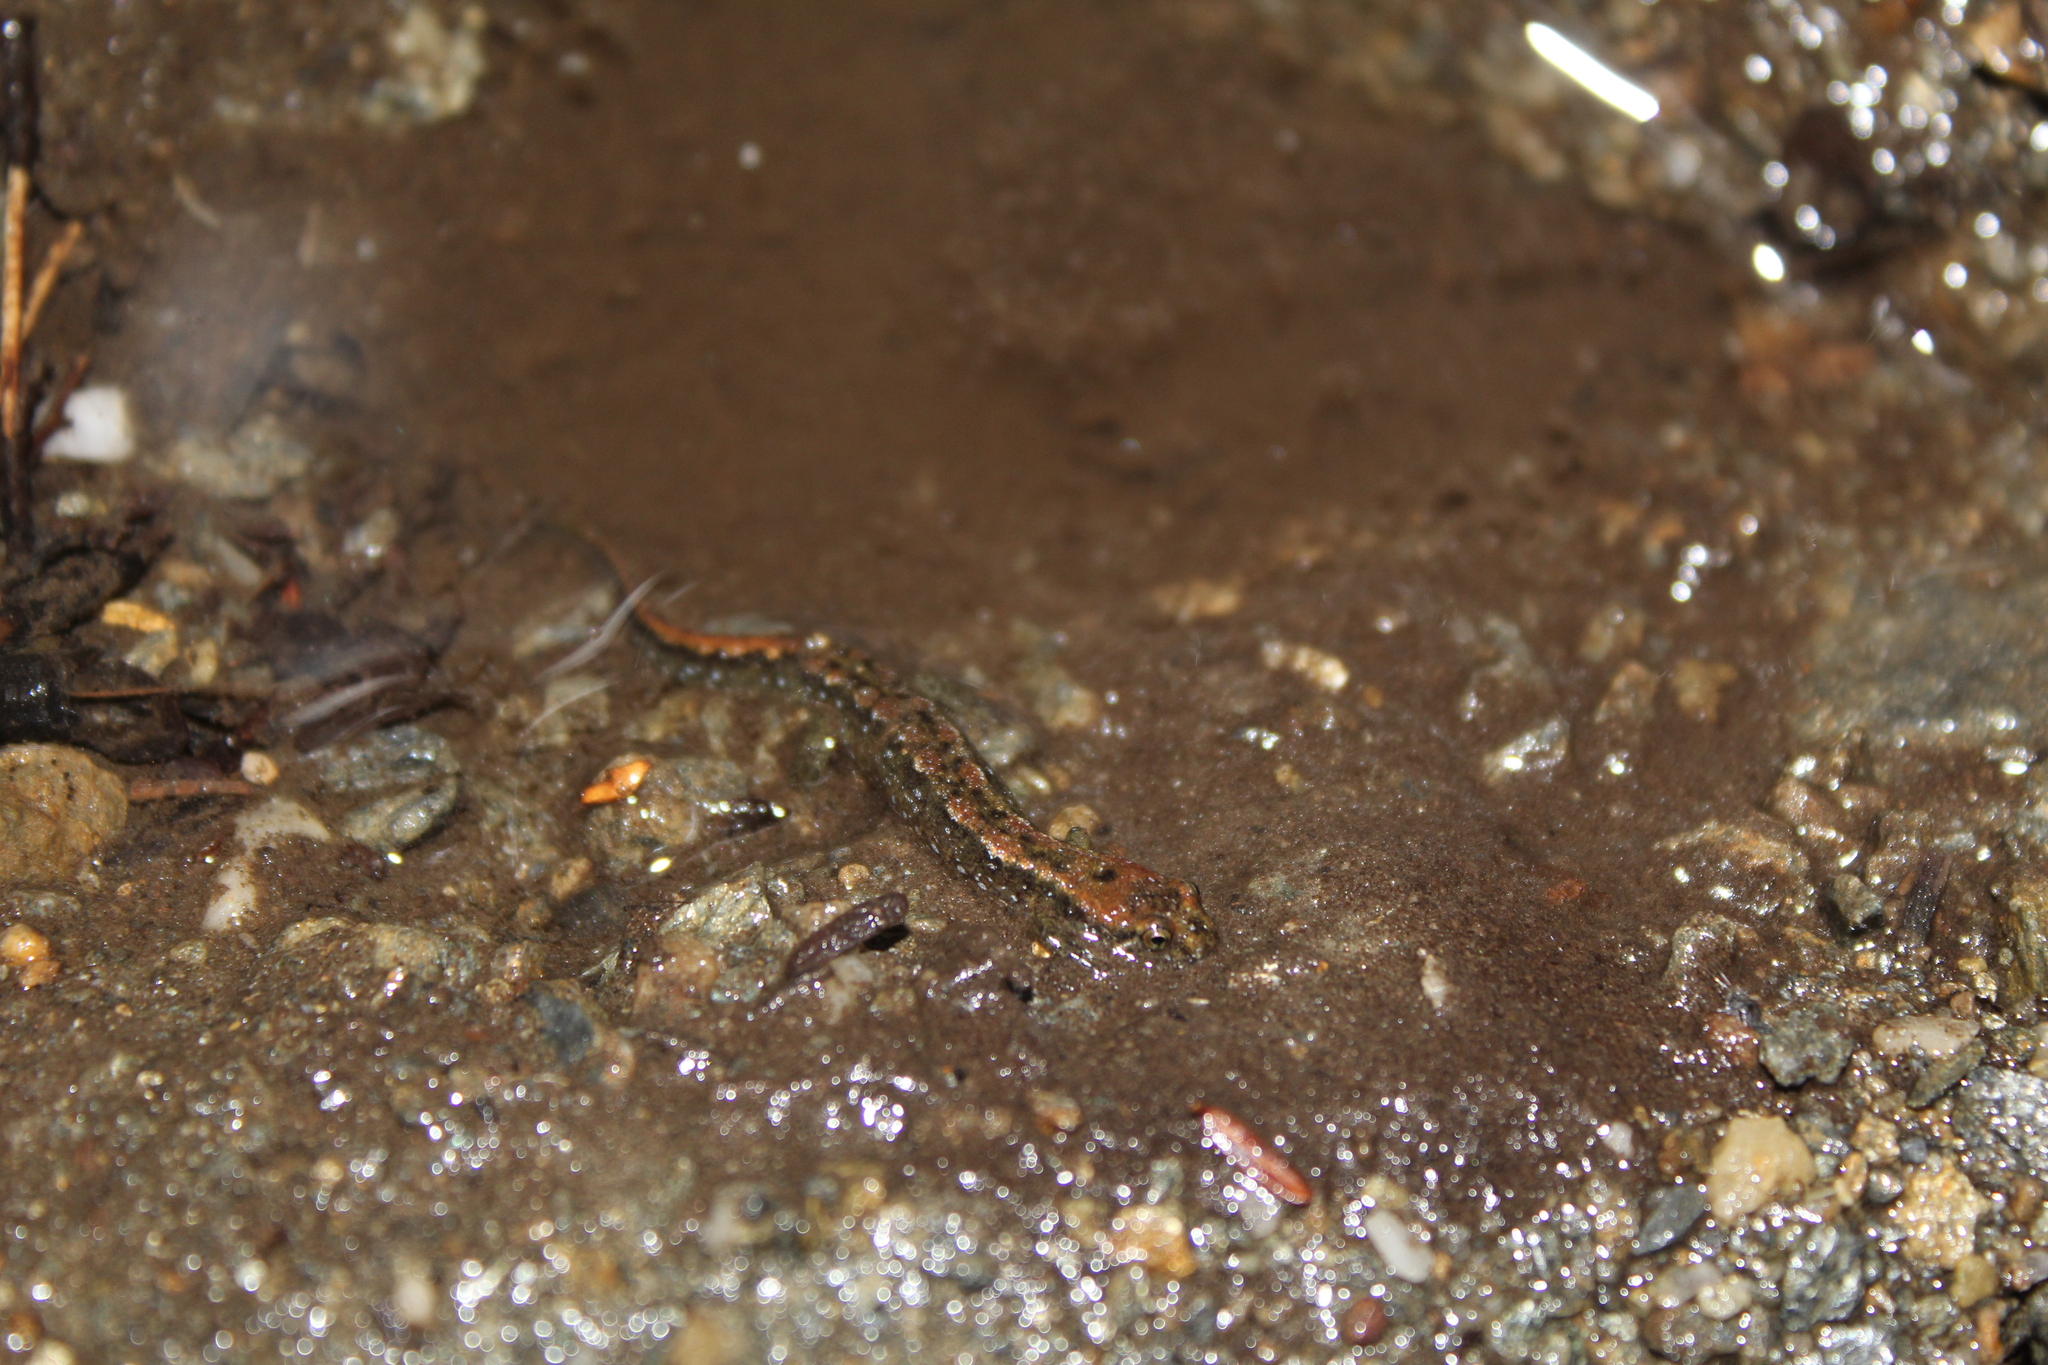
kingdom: Animalia
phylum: Chordata
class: Amphibia
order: Caudata
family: Plethodontidae
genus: Desmognathus
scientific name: Desmognathus fuscus
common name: Northern dusky salamander
